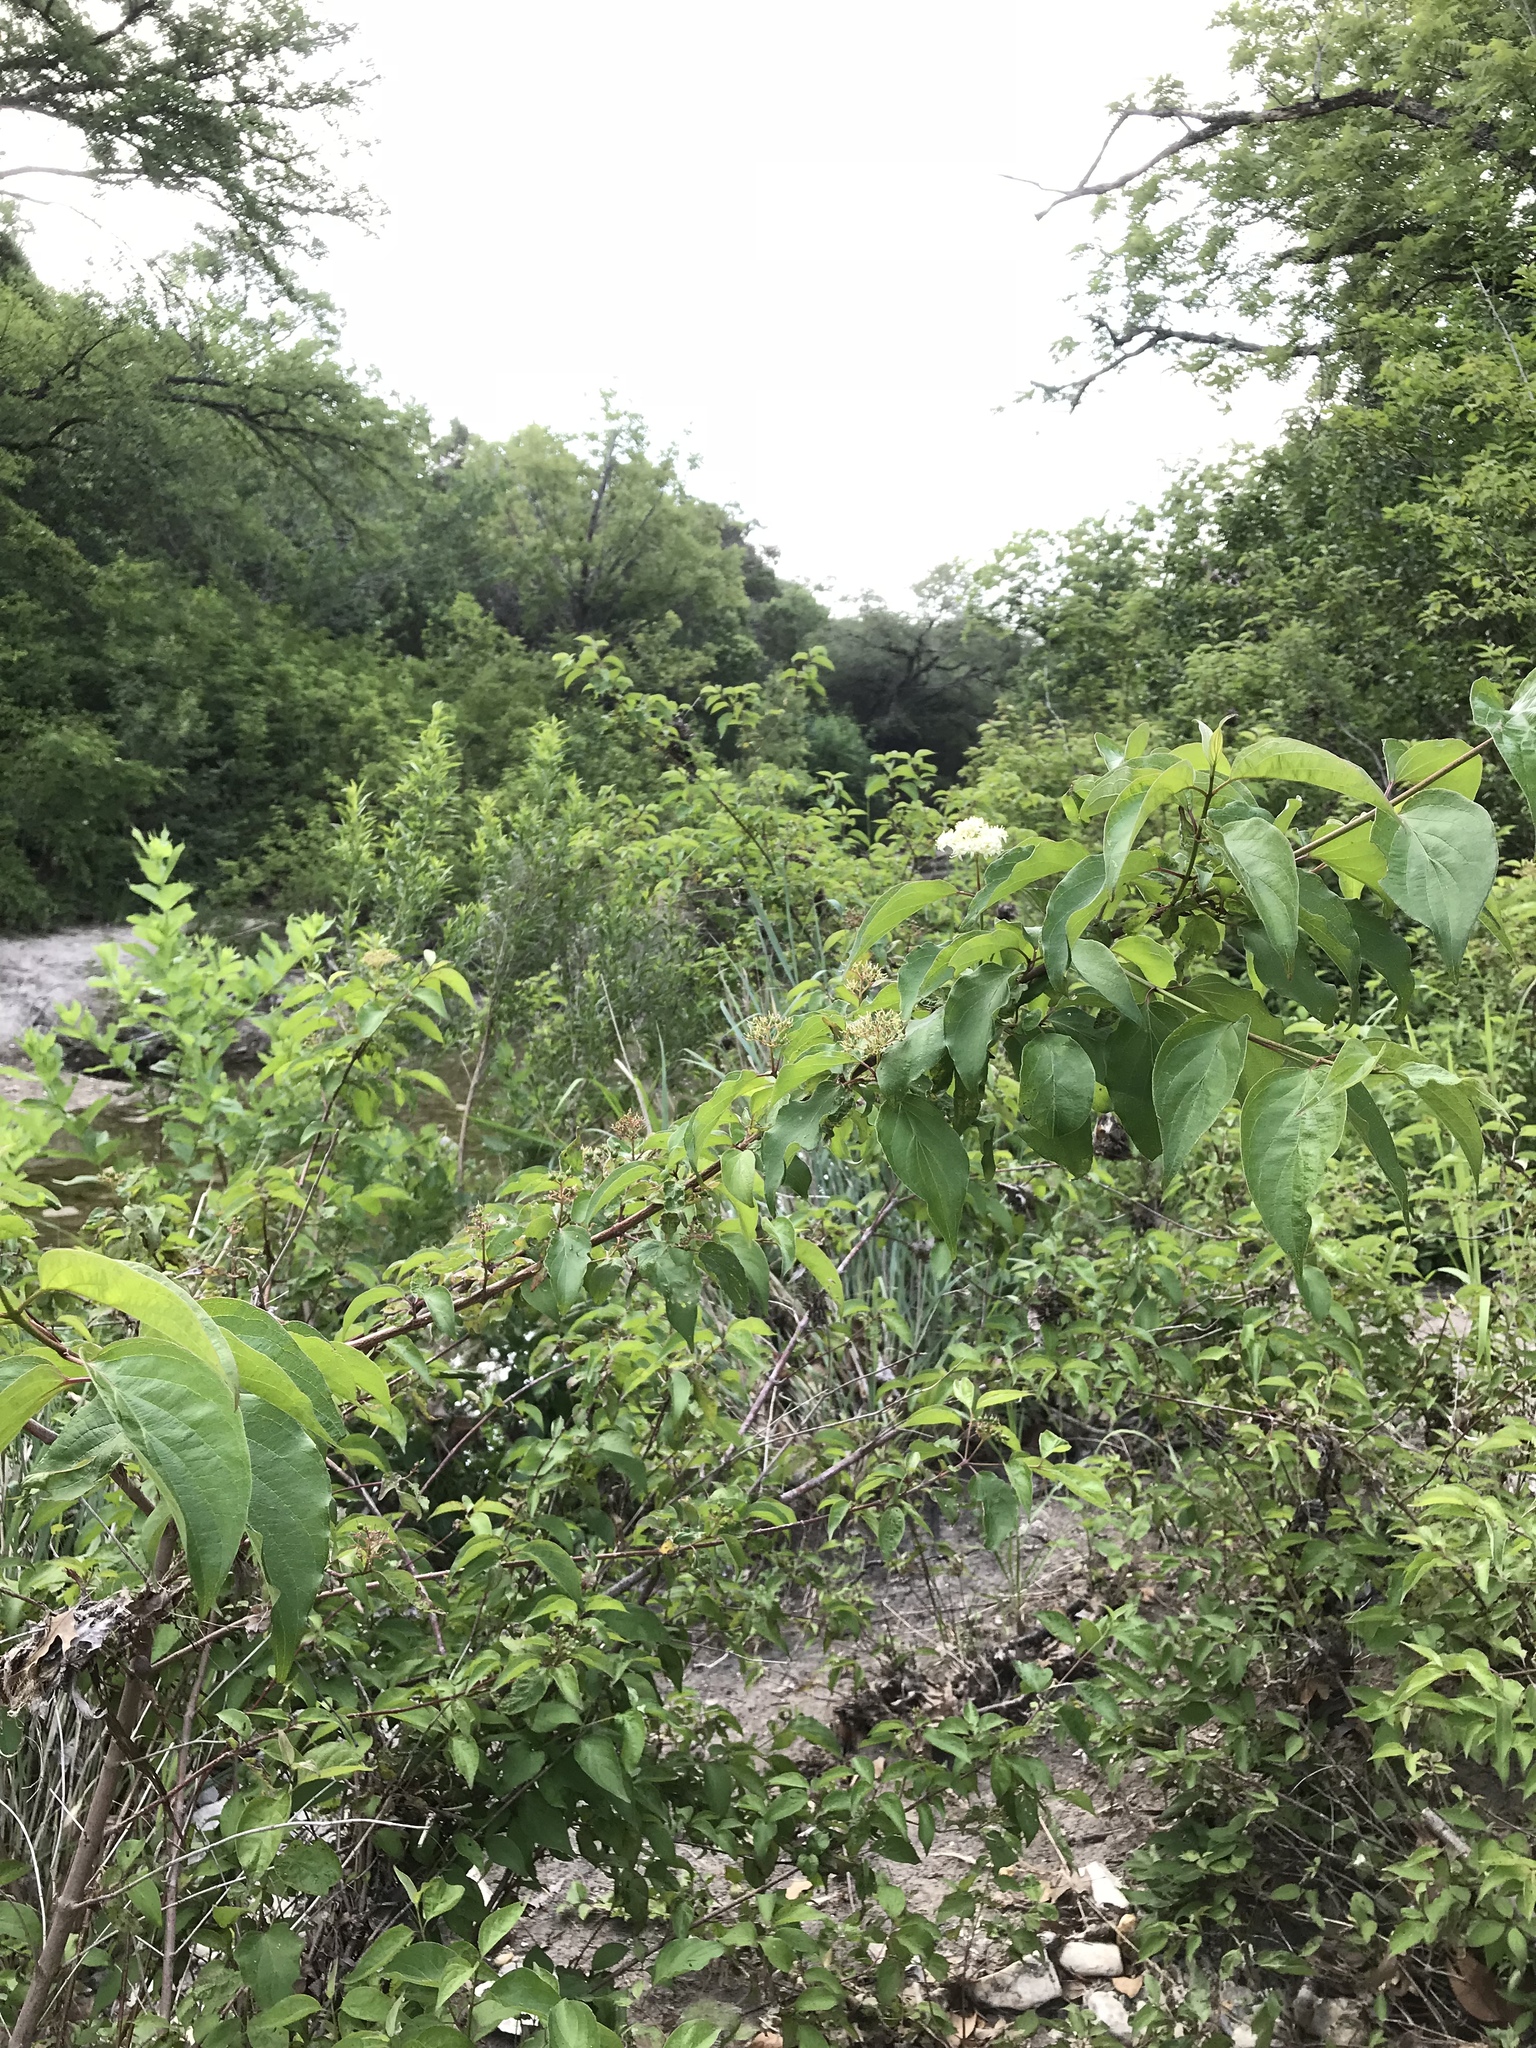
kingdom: Plantae
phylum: Tracheophyta
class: Magnoliopsida
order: Cornales
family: Cornaceae
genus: Cornus
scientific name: Cornus drummondii
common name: Rough-leaf dogwood
